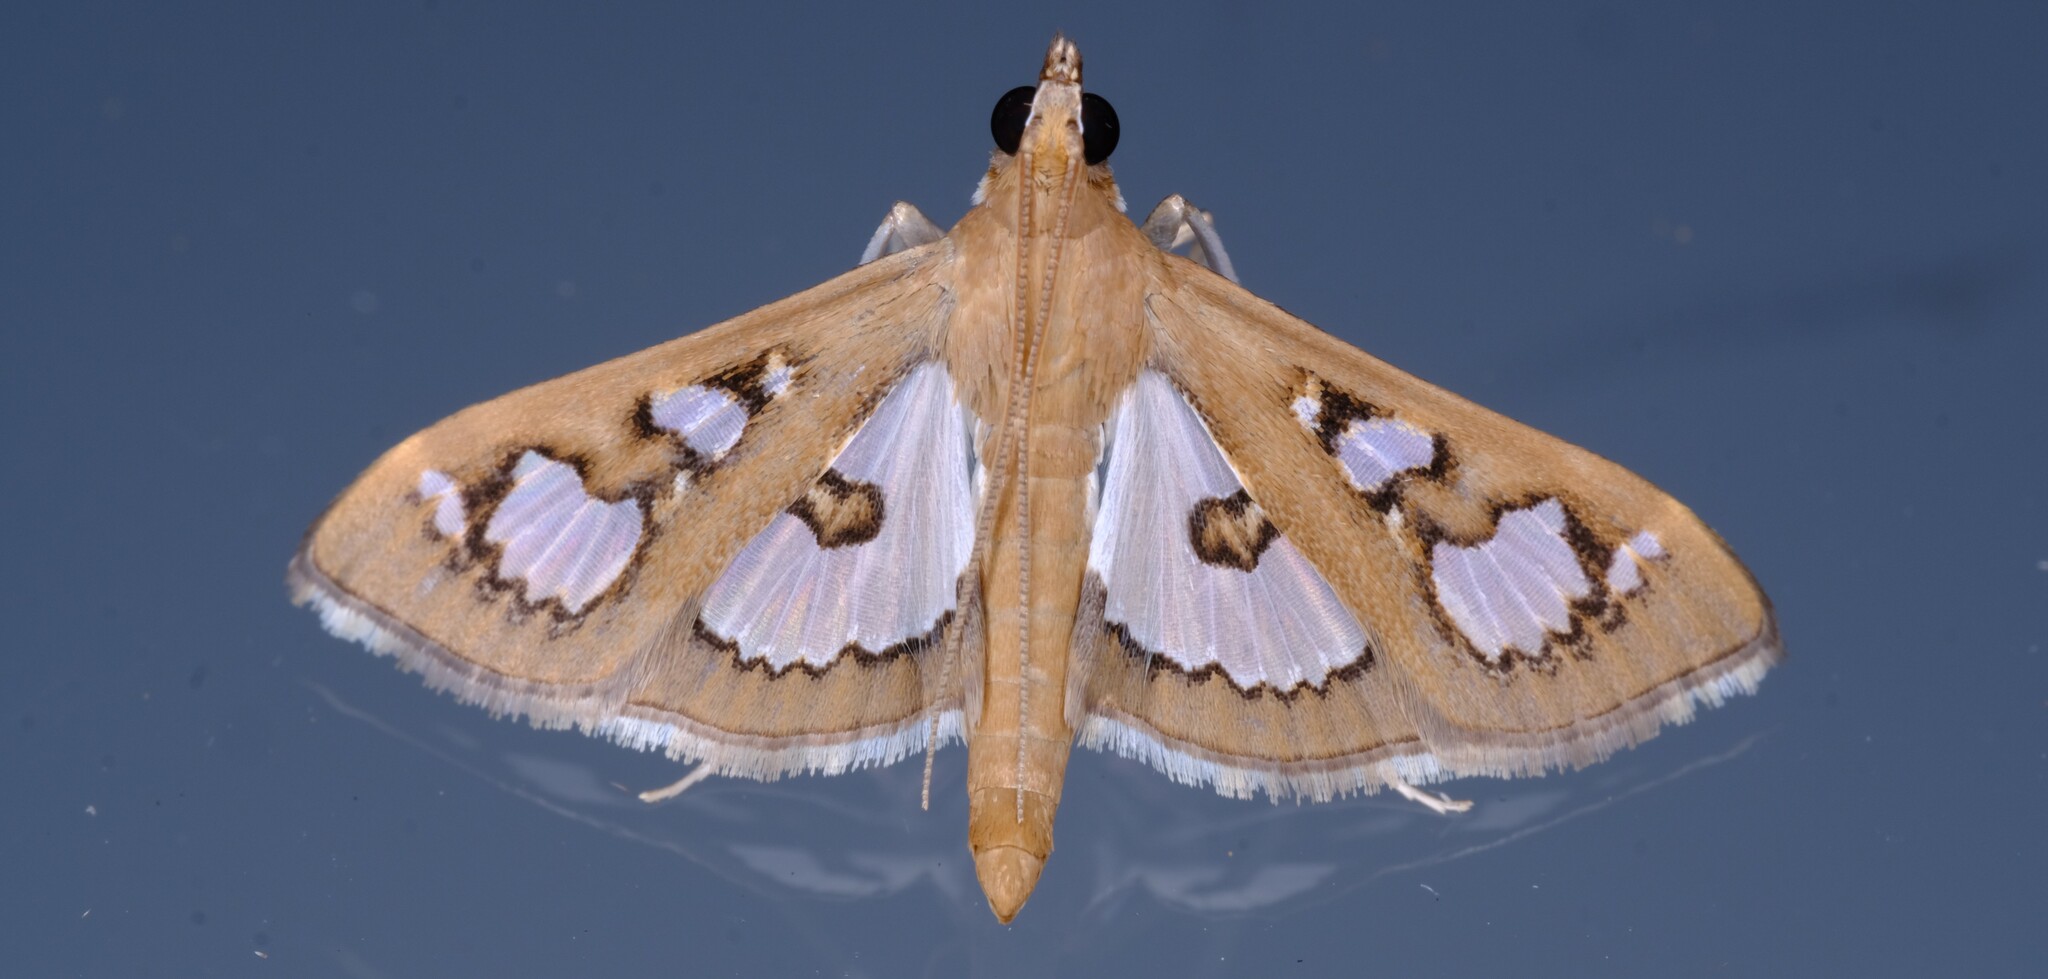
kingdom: Animalia
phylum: Arthropoda
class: Insecta
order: Lepidoptera
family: Crambidae
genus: Glyphodes
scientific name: Glyphodes microta
